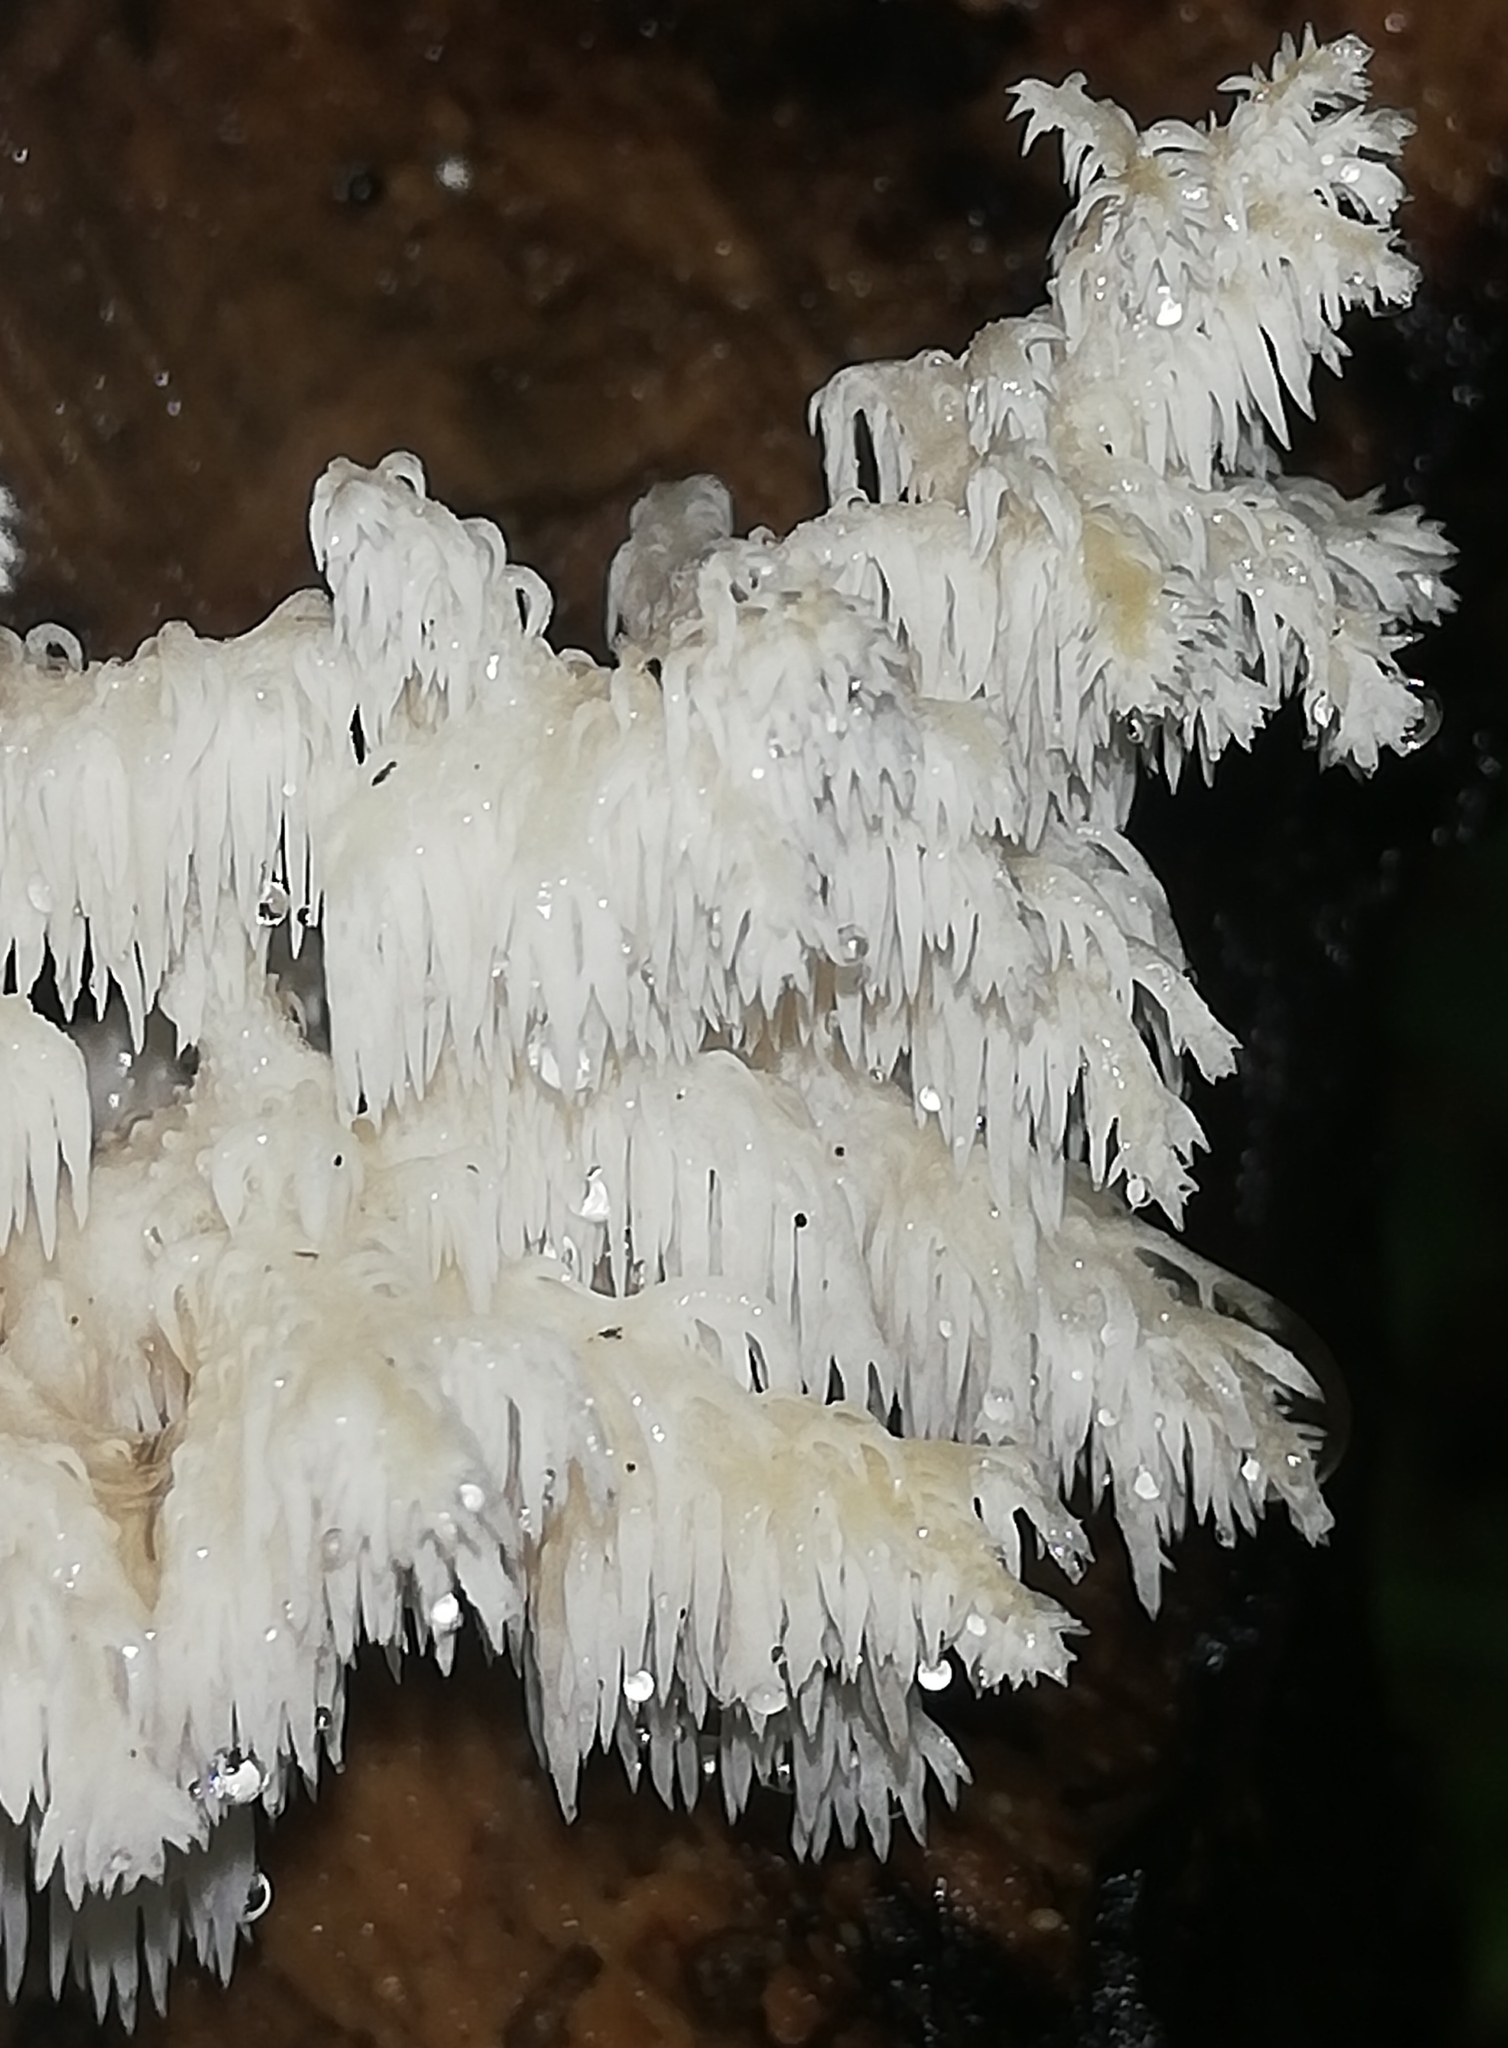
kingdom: Fungi
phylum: Basidiomycota
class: Agaricomycetes
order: Russulales
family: Hericiaceae
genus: Hericium
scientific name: Hericium coralloides
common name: Coral tooth
